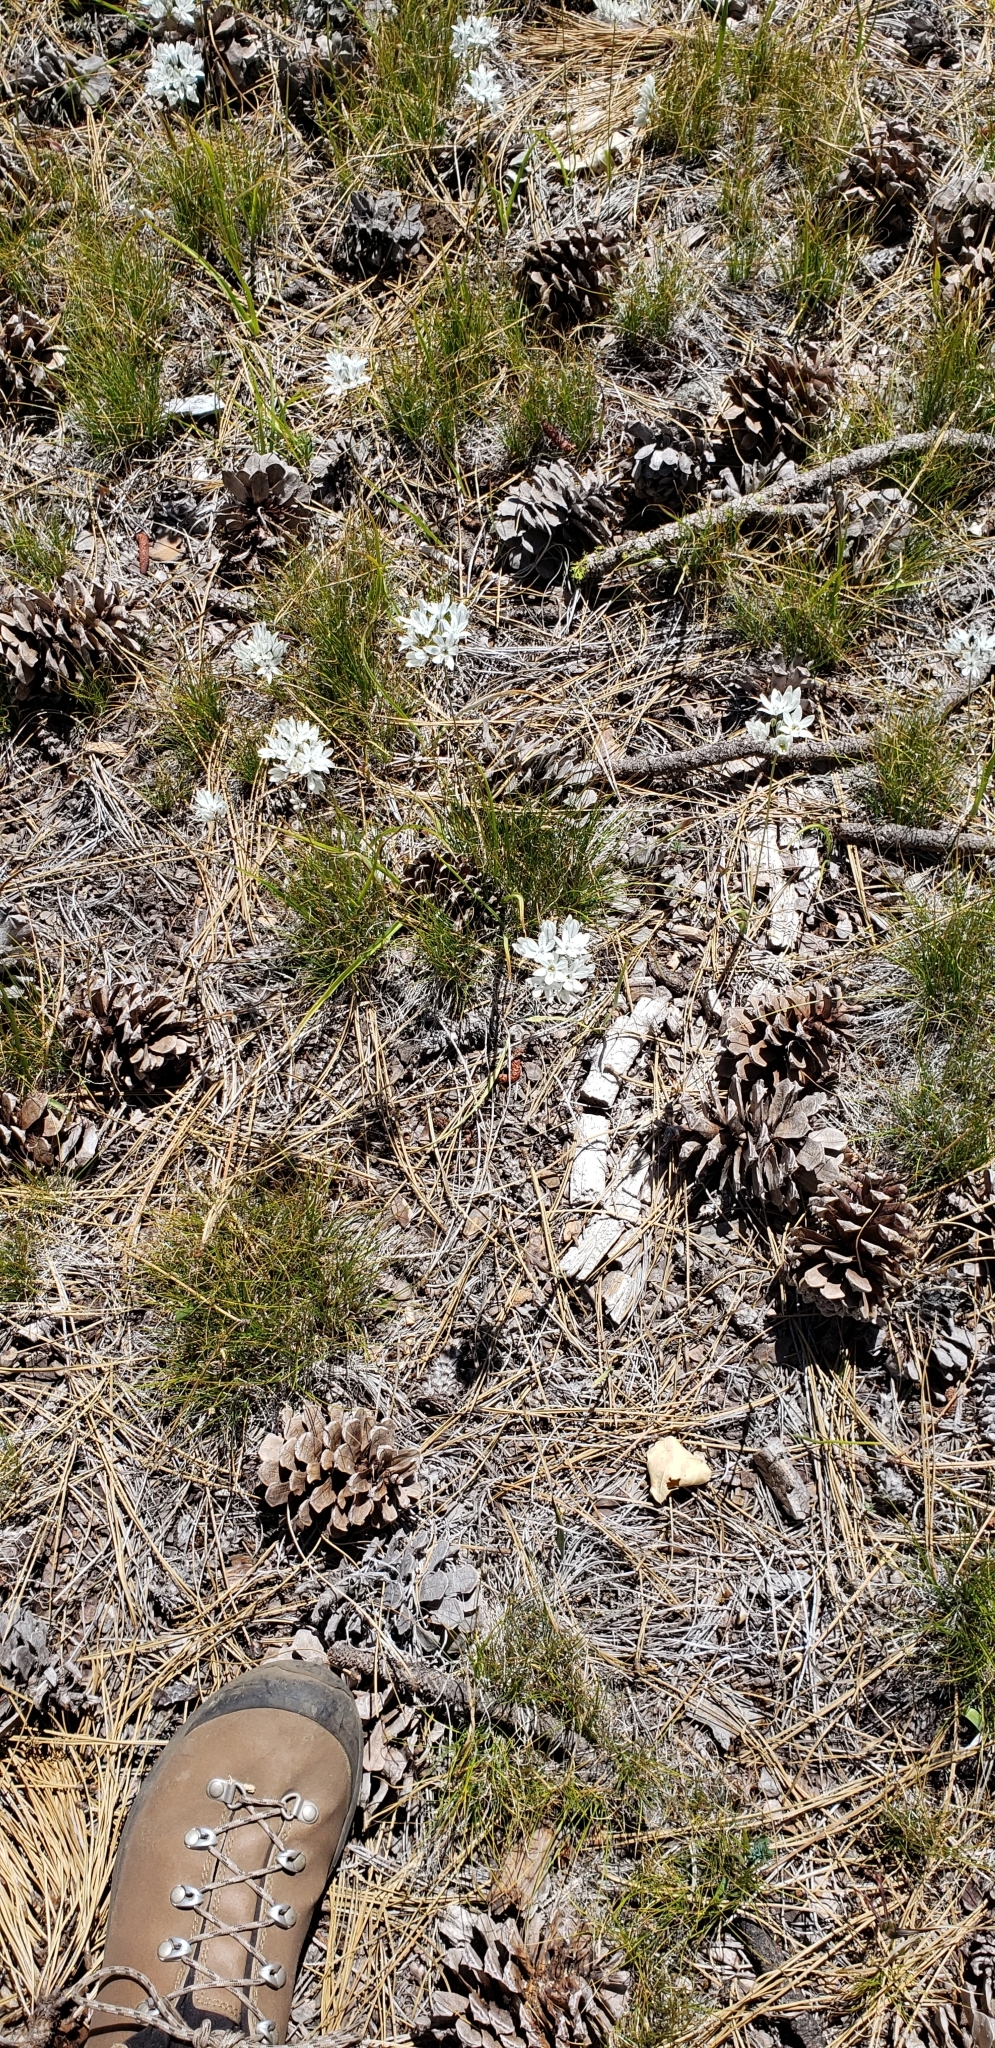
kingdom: Plantae
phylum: Tracheophyta
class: Liliopsida
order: Asparagales
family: Asparagaceae
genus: Triteleia
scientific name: Triteleia hyacinthina
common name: White brodiaea
